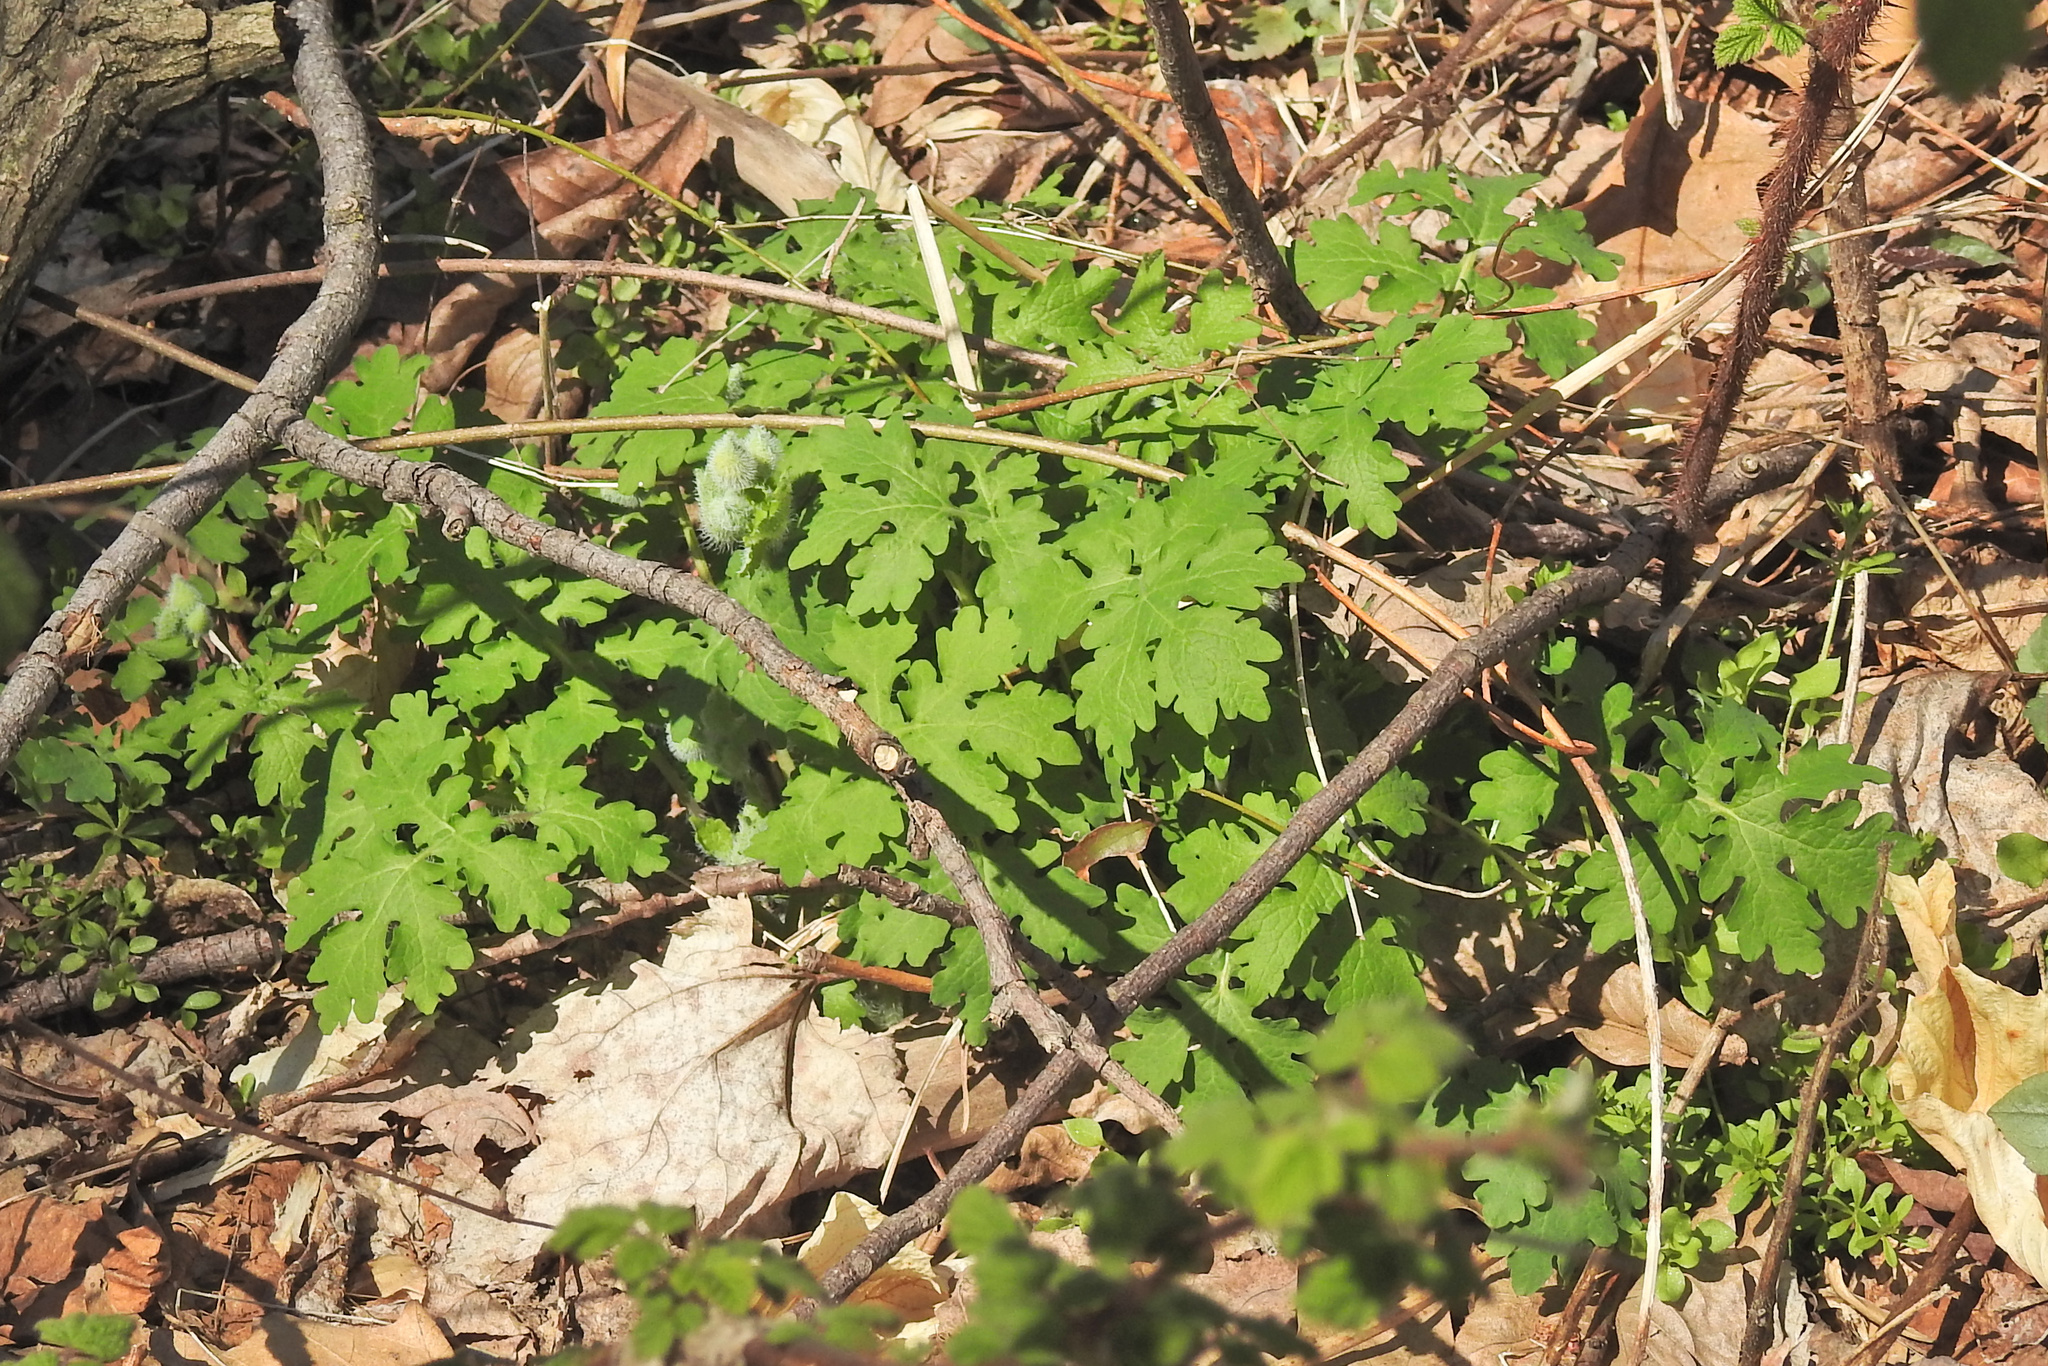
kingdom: Plantae
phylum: Tracheophyta
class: Magnoliopsida
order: Ranunculales
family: Papaveraceae
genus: Stylophorum
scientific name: Stylophorum diphyllum
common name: Celandine poppy
